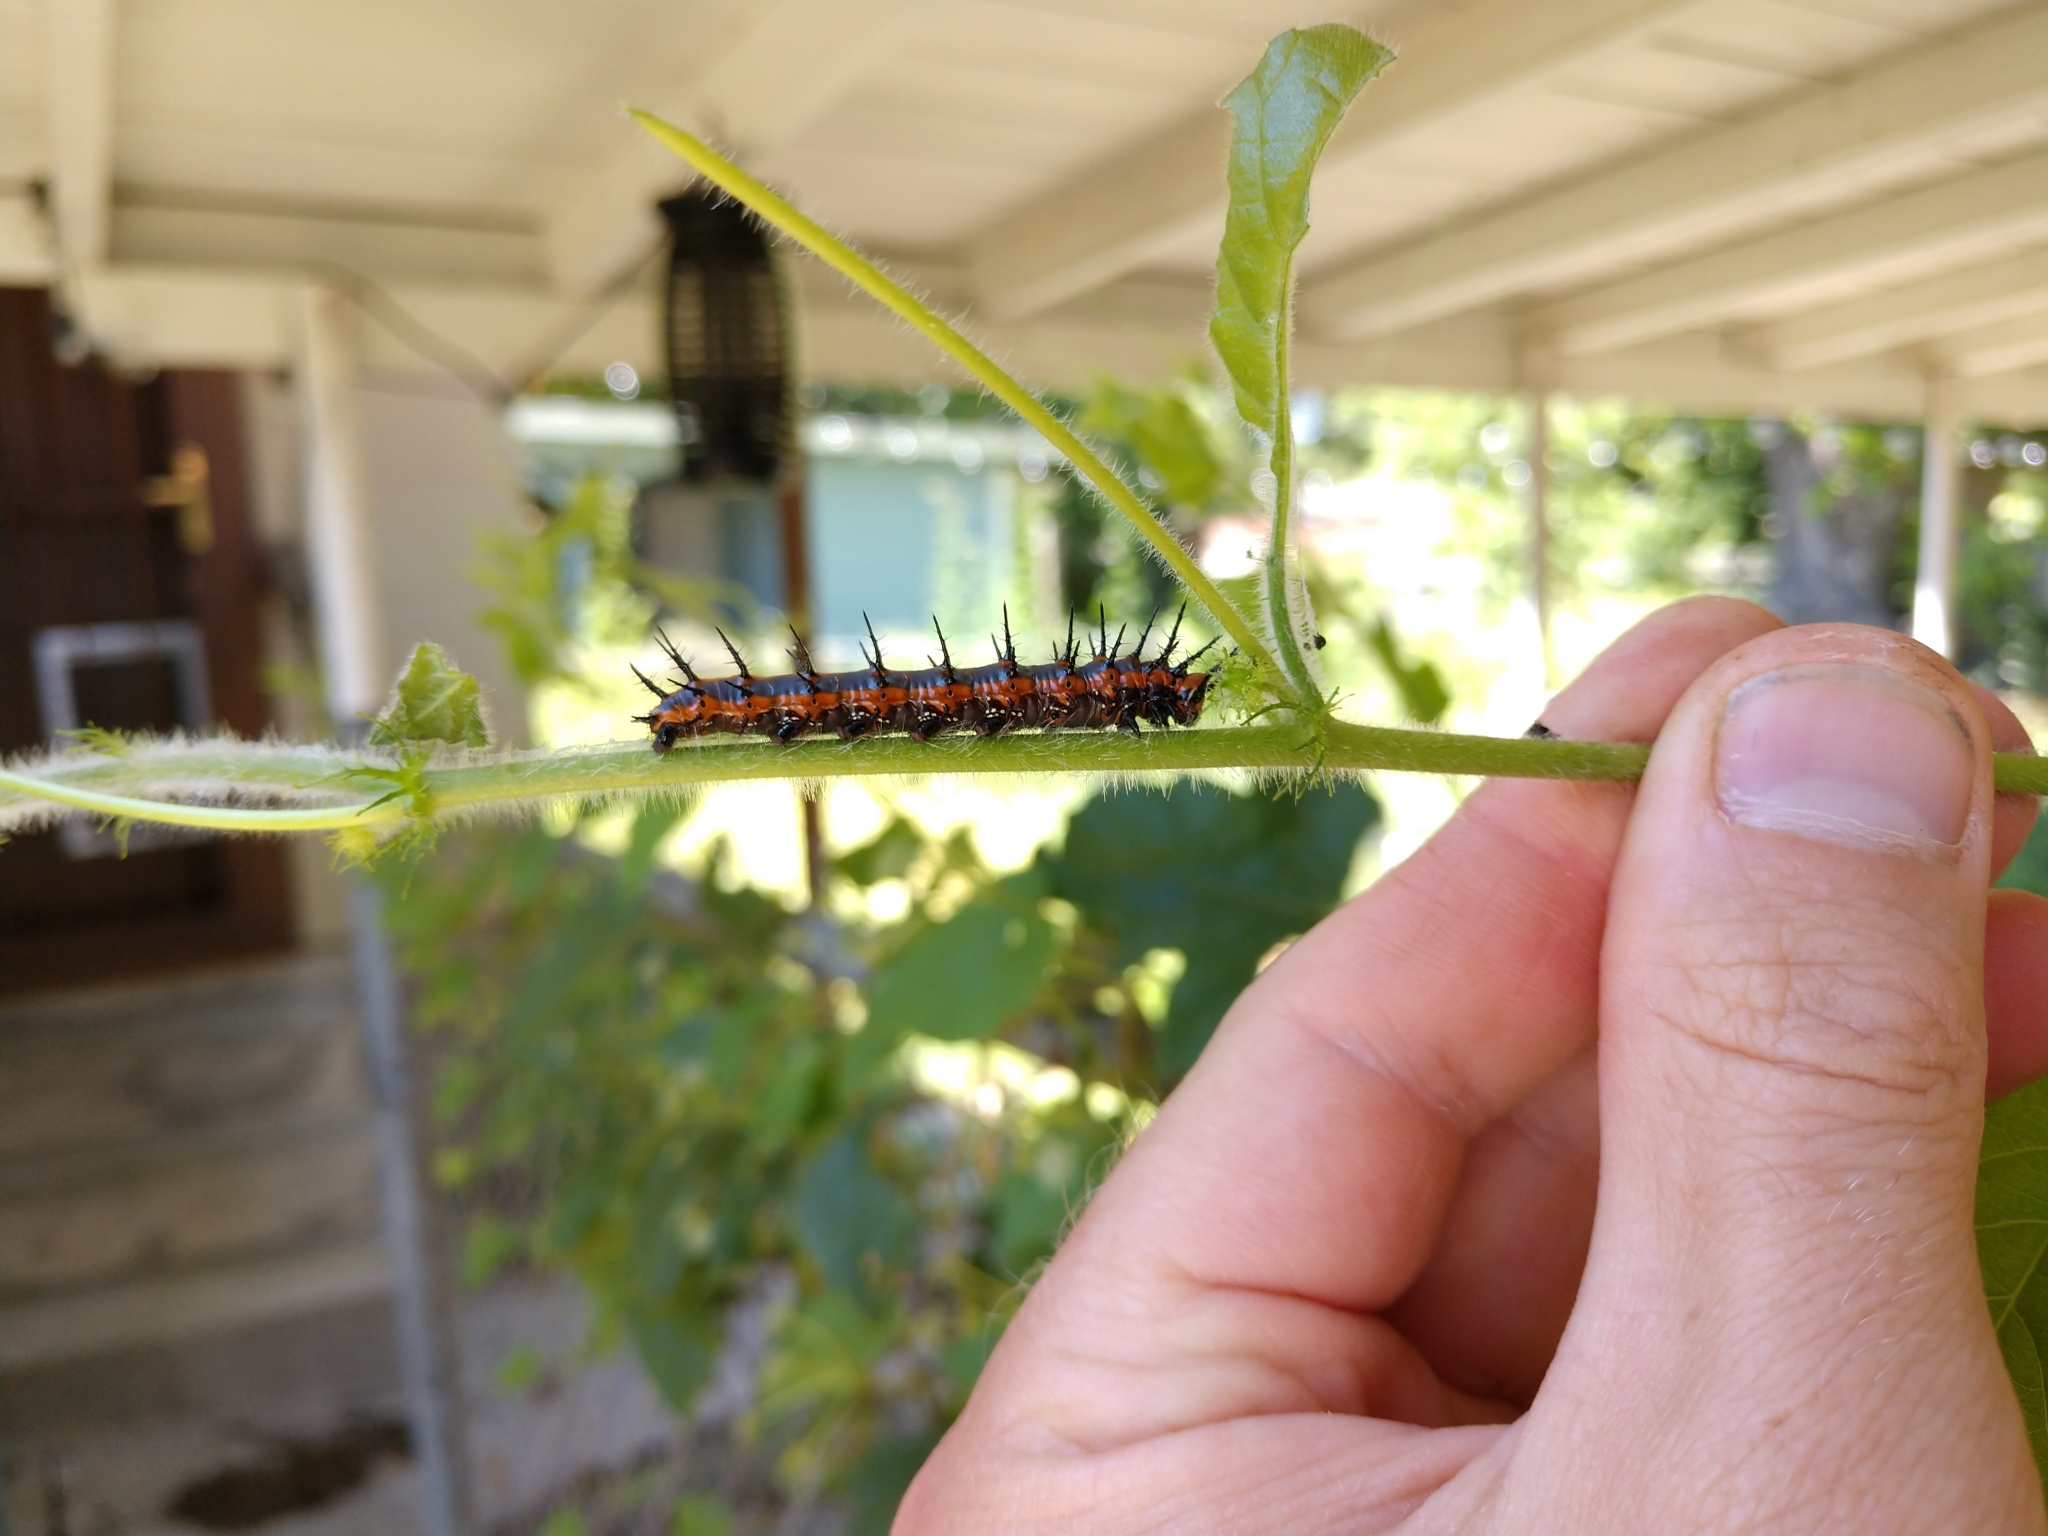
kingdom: Animalia
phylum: Arthropoda
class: Insecta
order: Lepidoptera
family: Nymphalidae
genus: Dione
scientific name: Dione vanillae
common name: Gulf fritillary
